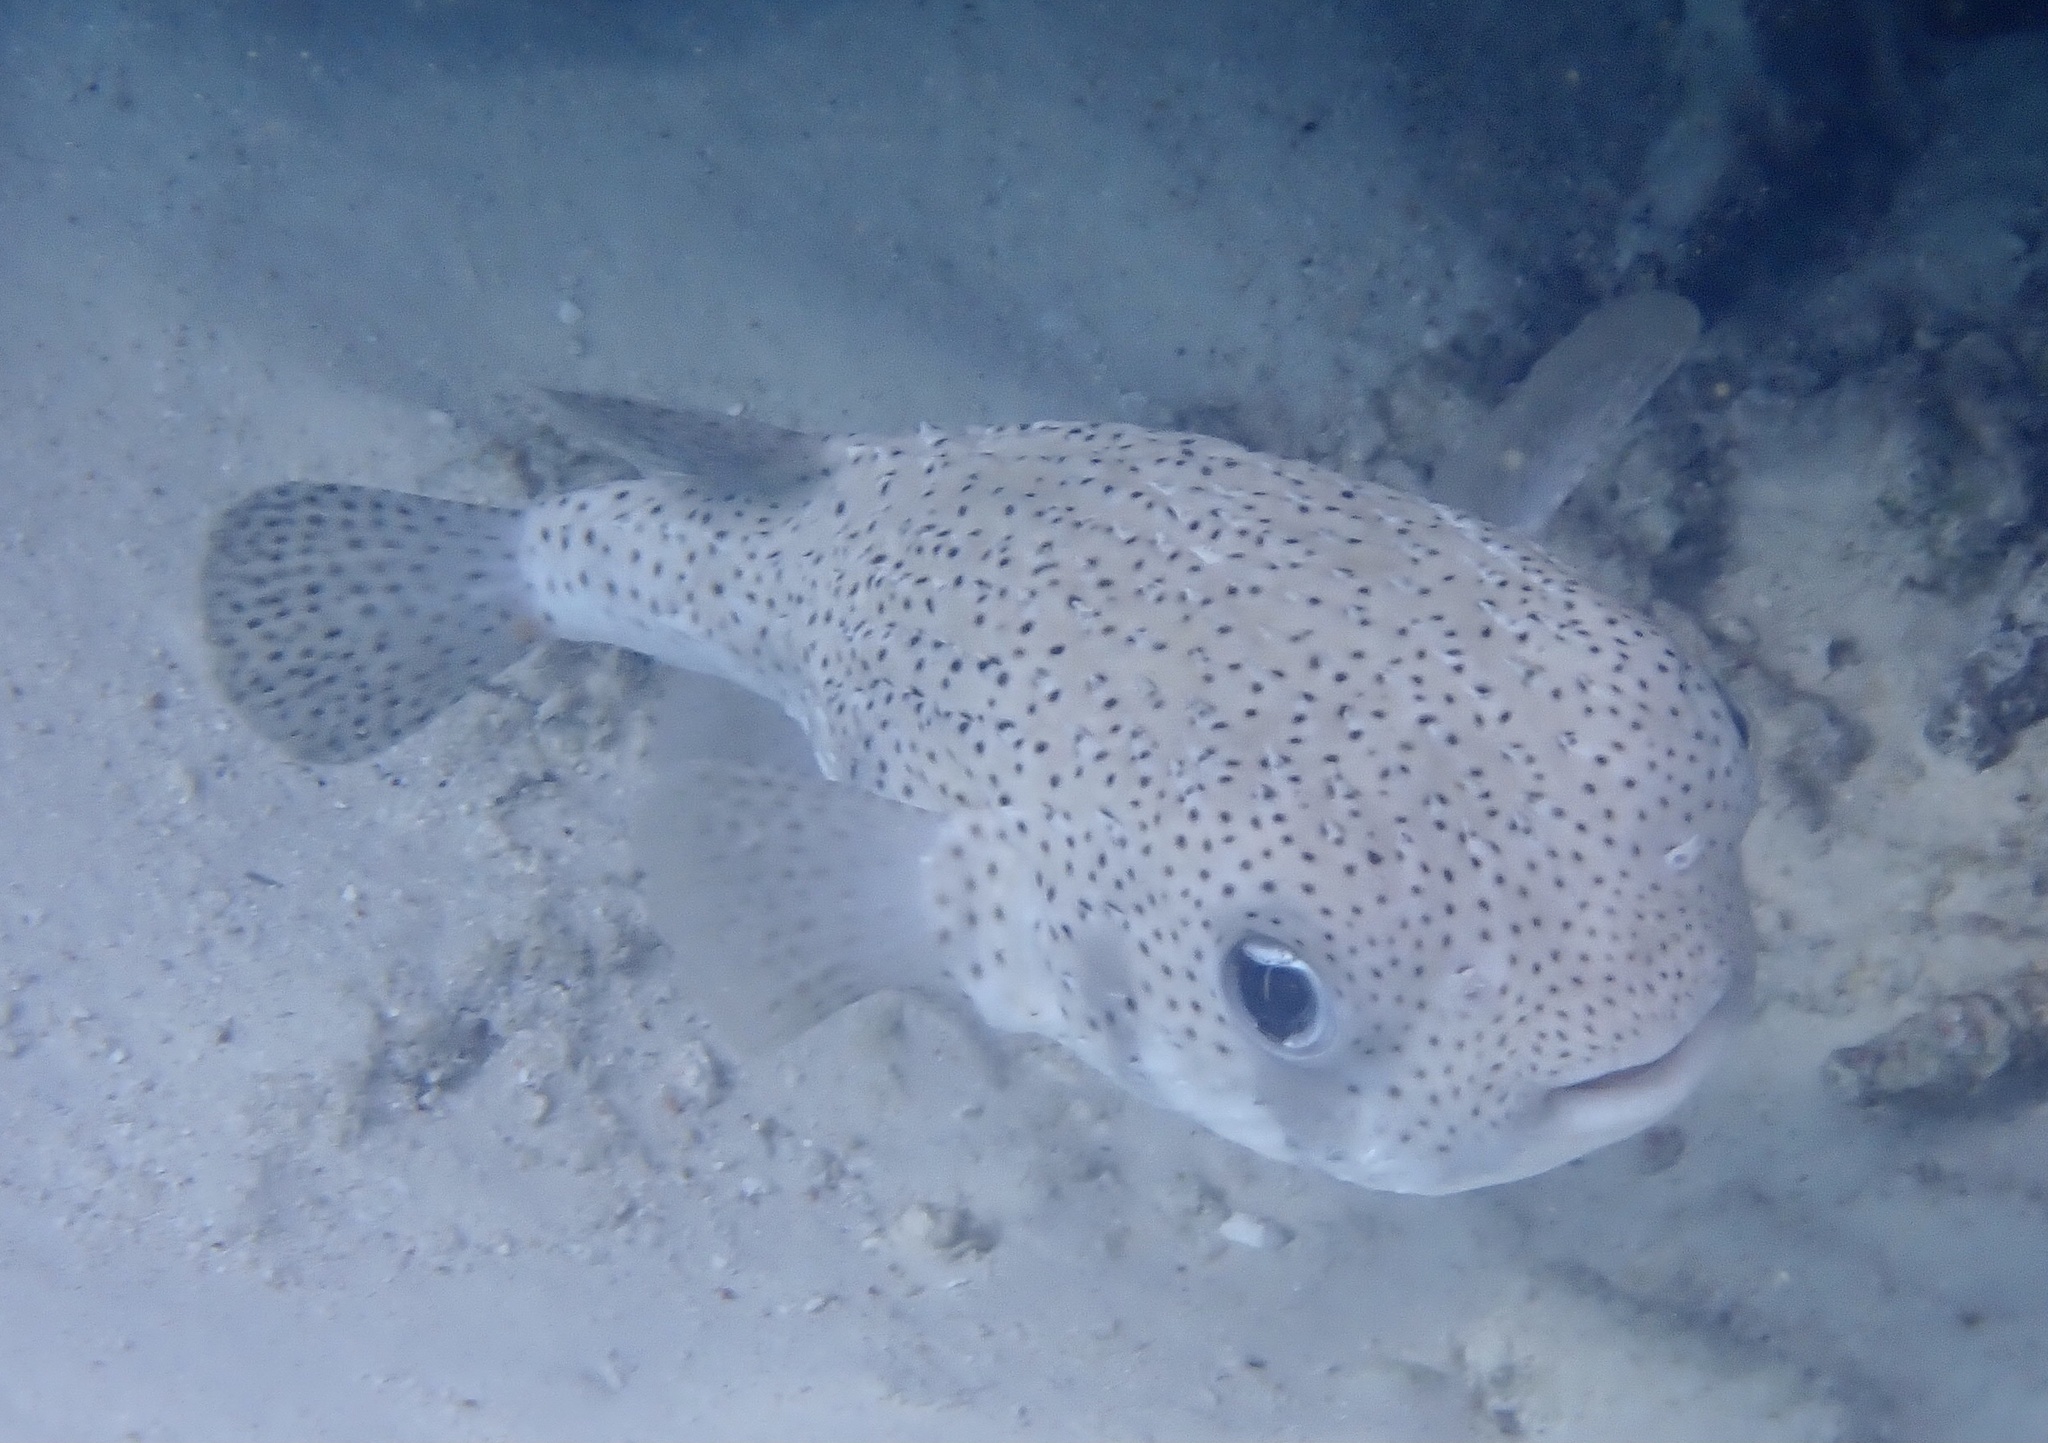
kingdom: Animalia
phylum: Chordata
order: Tetraodontiformes
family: Diodontidae
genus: Diodon
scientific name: Diodon hystrix
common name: Giant porcupinefish
